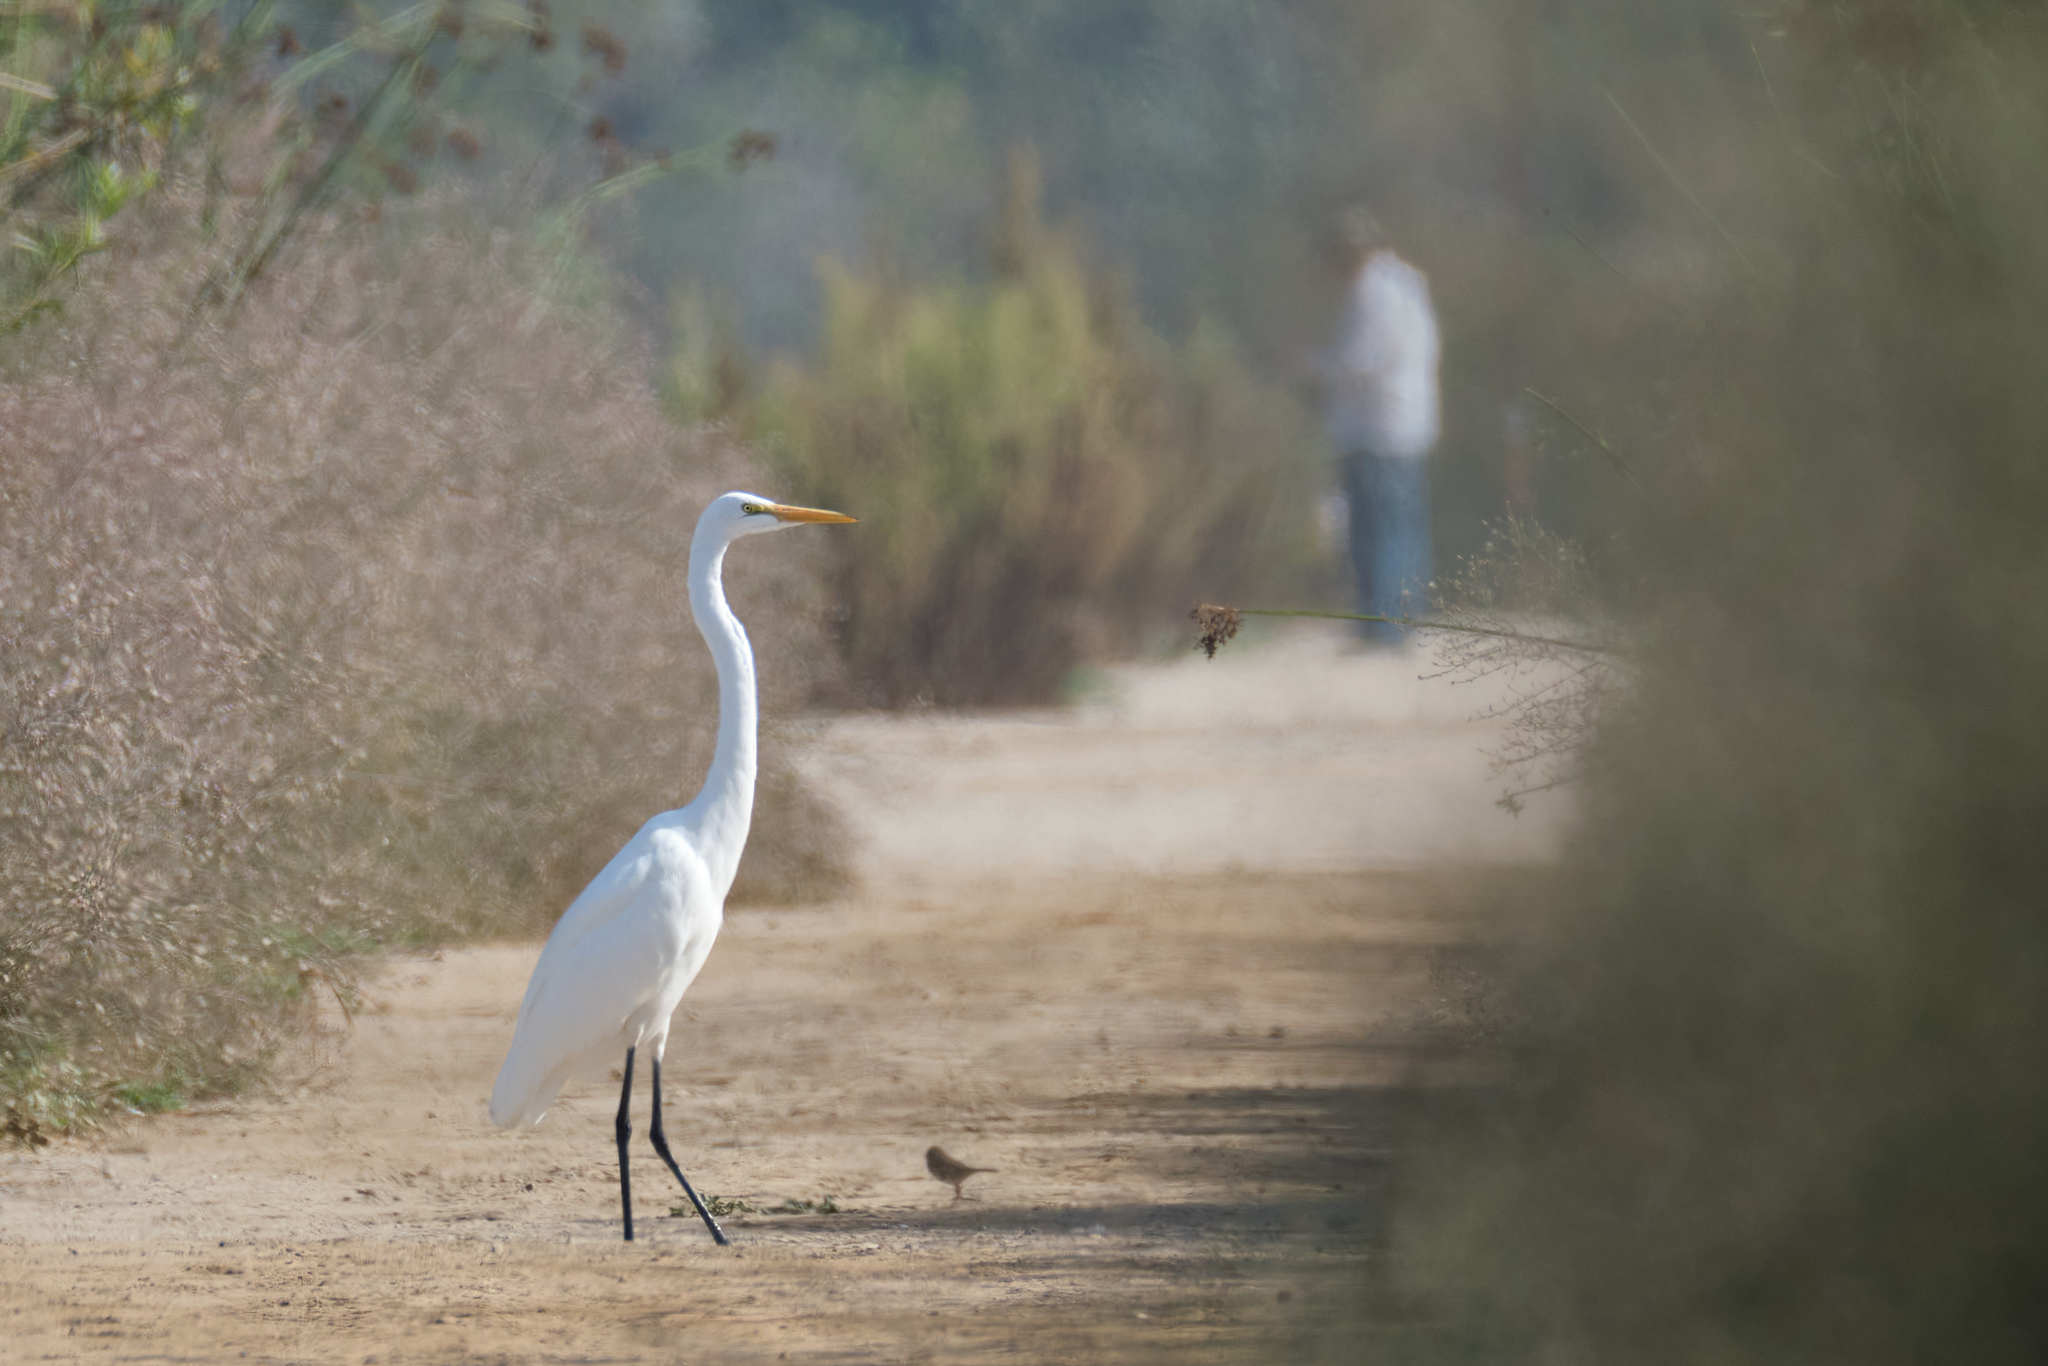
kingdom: Animalia
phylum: Chordata
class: Aves
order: Pelecaniformes
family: Ardeidae
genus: Ardea
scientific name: Ardea alba
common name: Great egret
